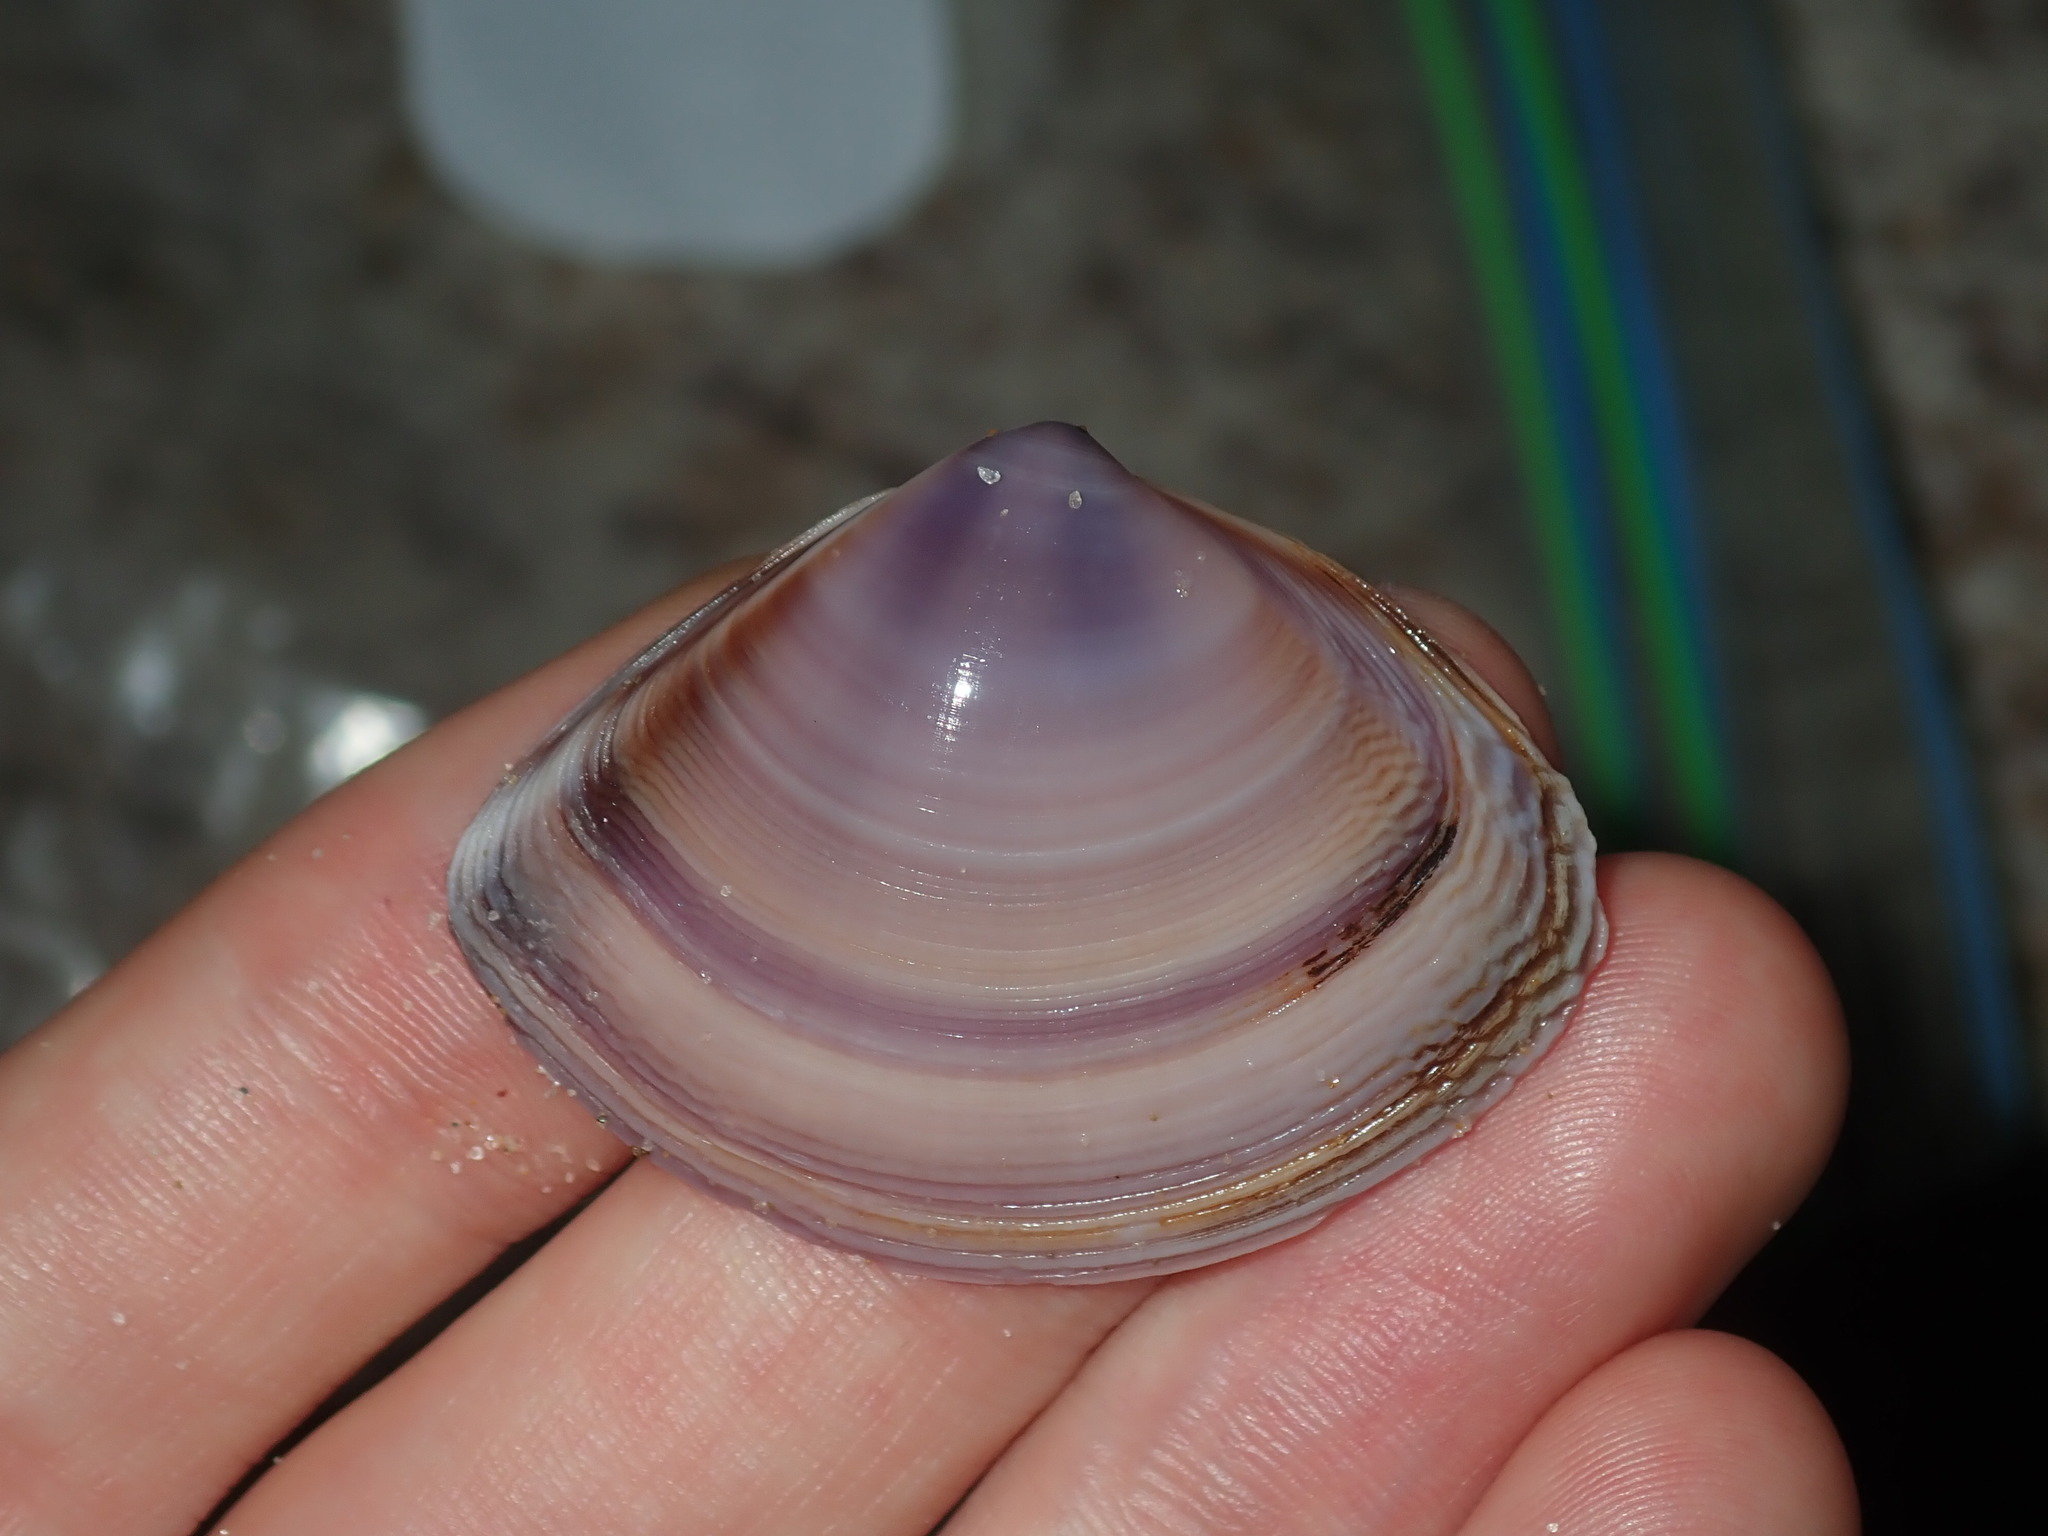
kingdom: Animalia
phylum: Mollusca
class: Bivalvia
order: Venerida
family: Mactridae
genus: Austromactra
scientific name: Austromactra contraria
